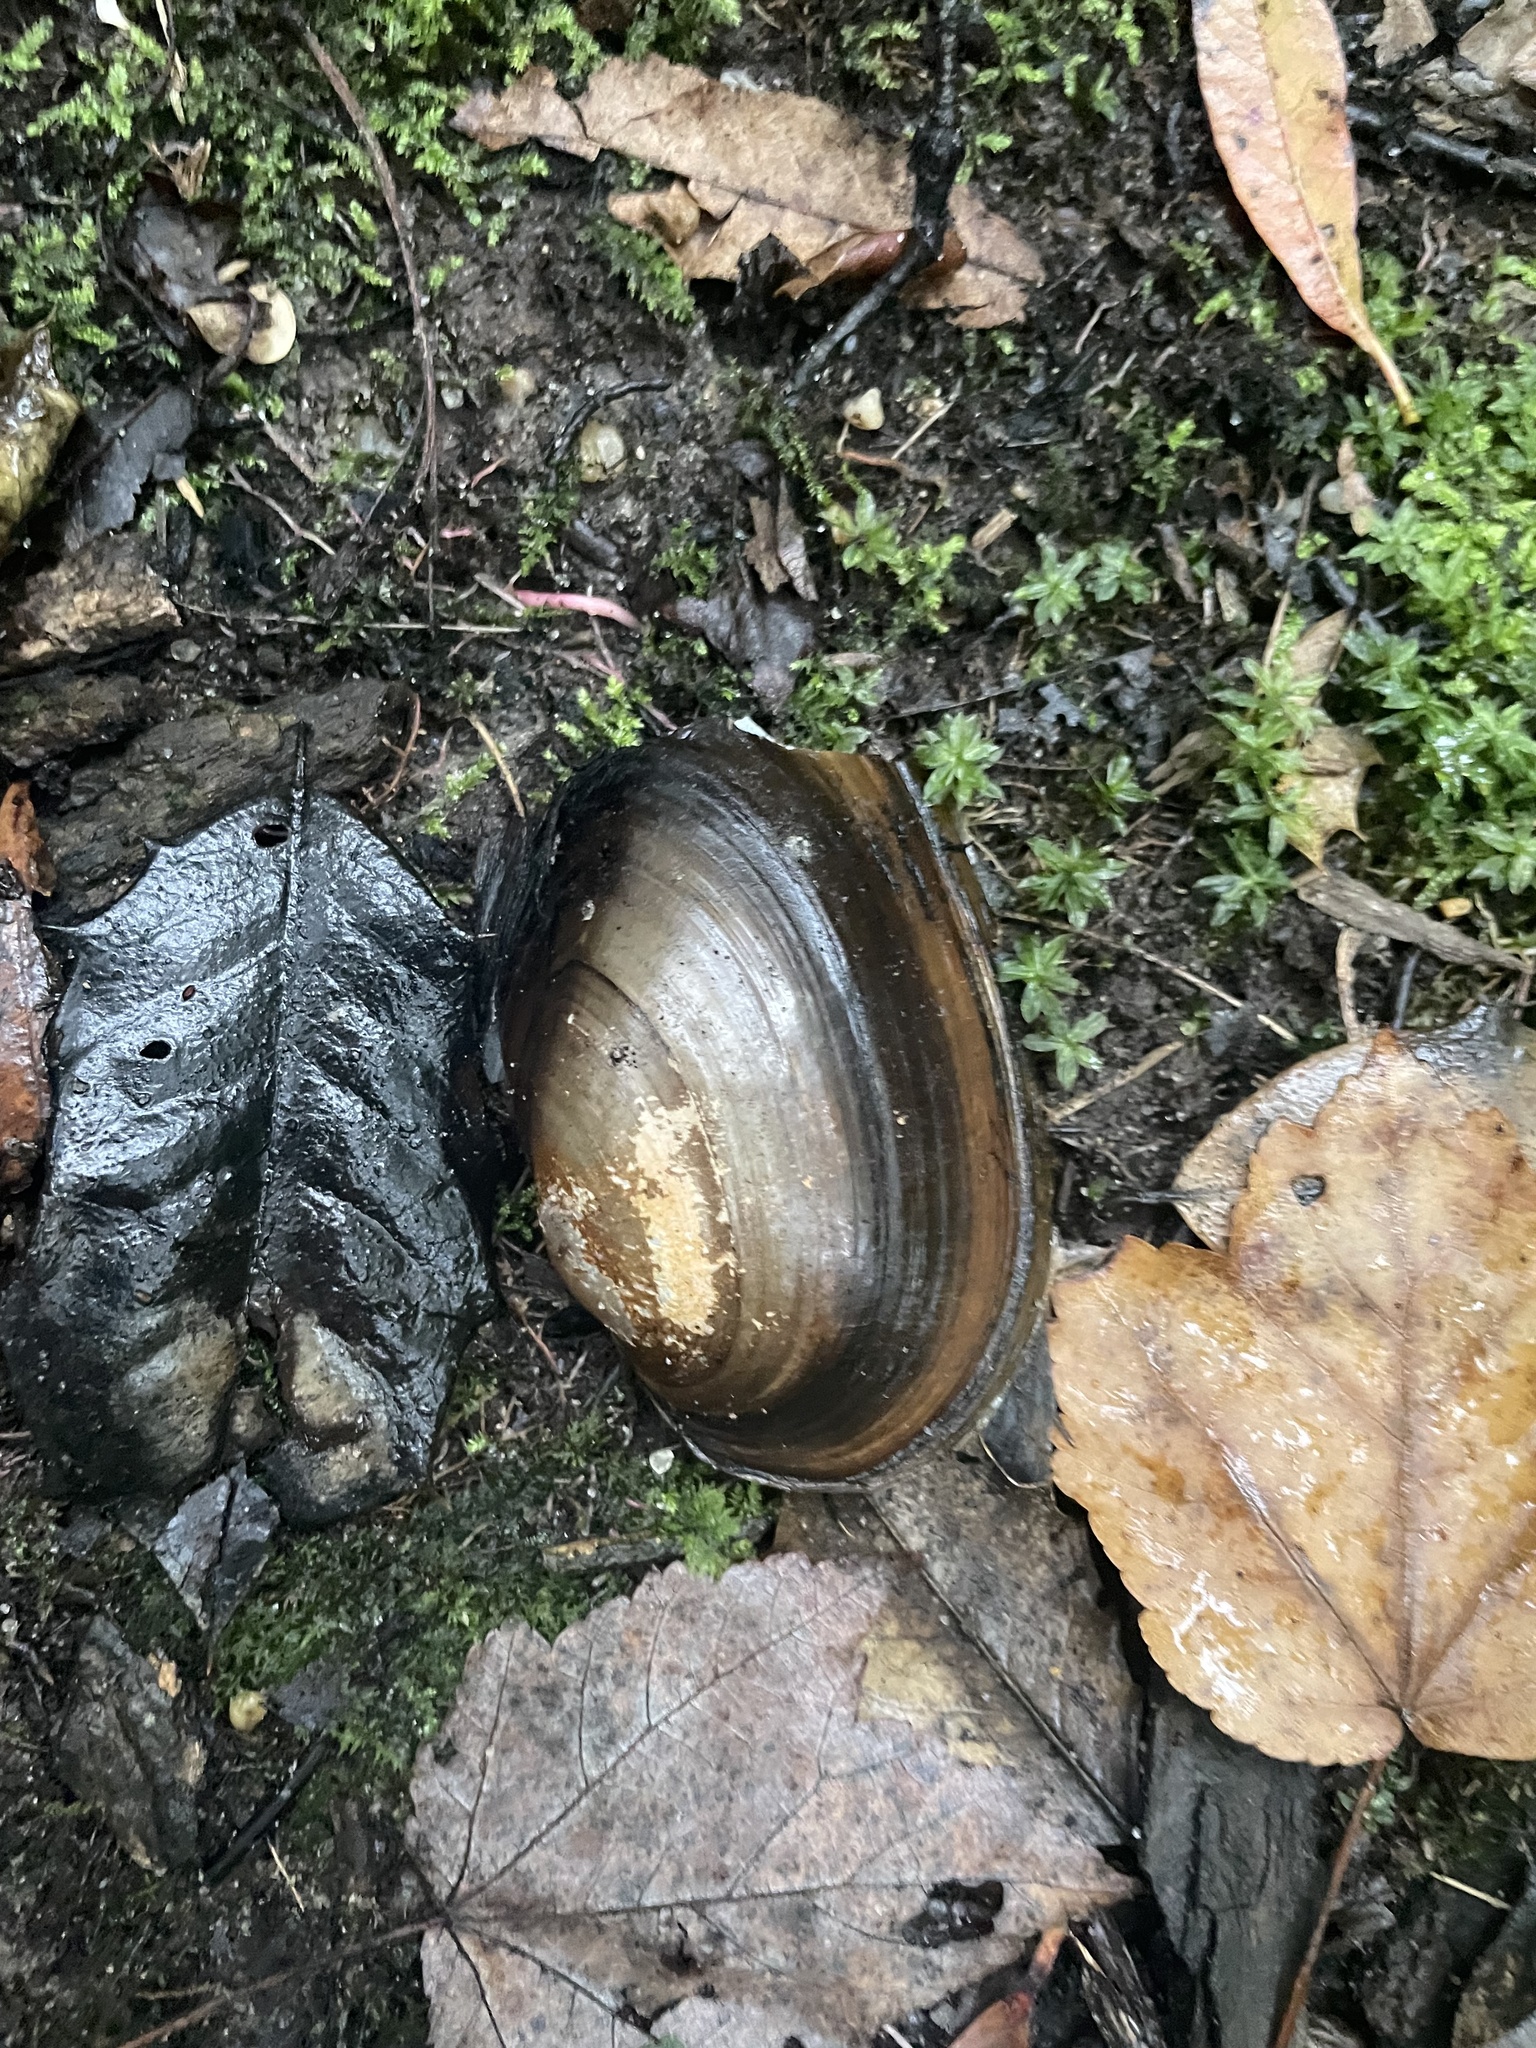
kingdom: Animalia
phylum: Mollusca
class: Bivalvia
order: Unionida
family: Unionidae
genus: Pyganodon
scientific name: Pyganodon cataracta
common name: Eastern floater
